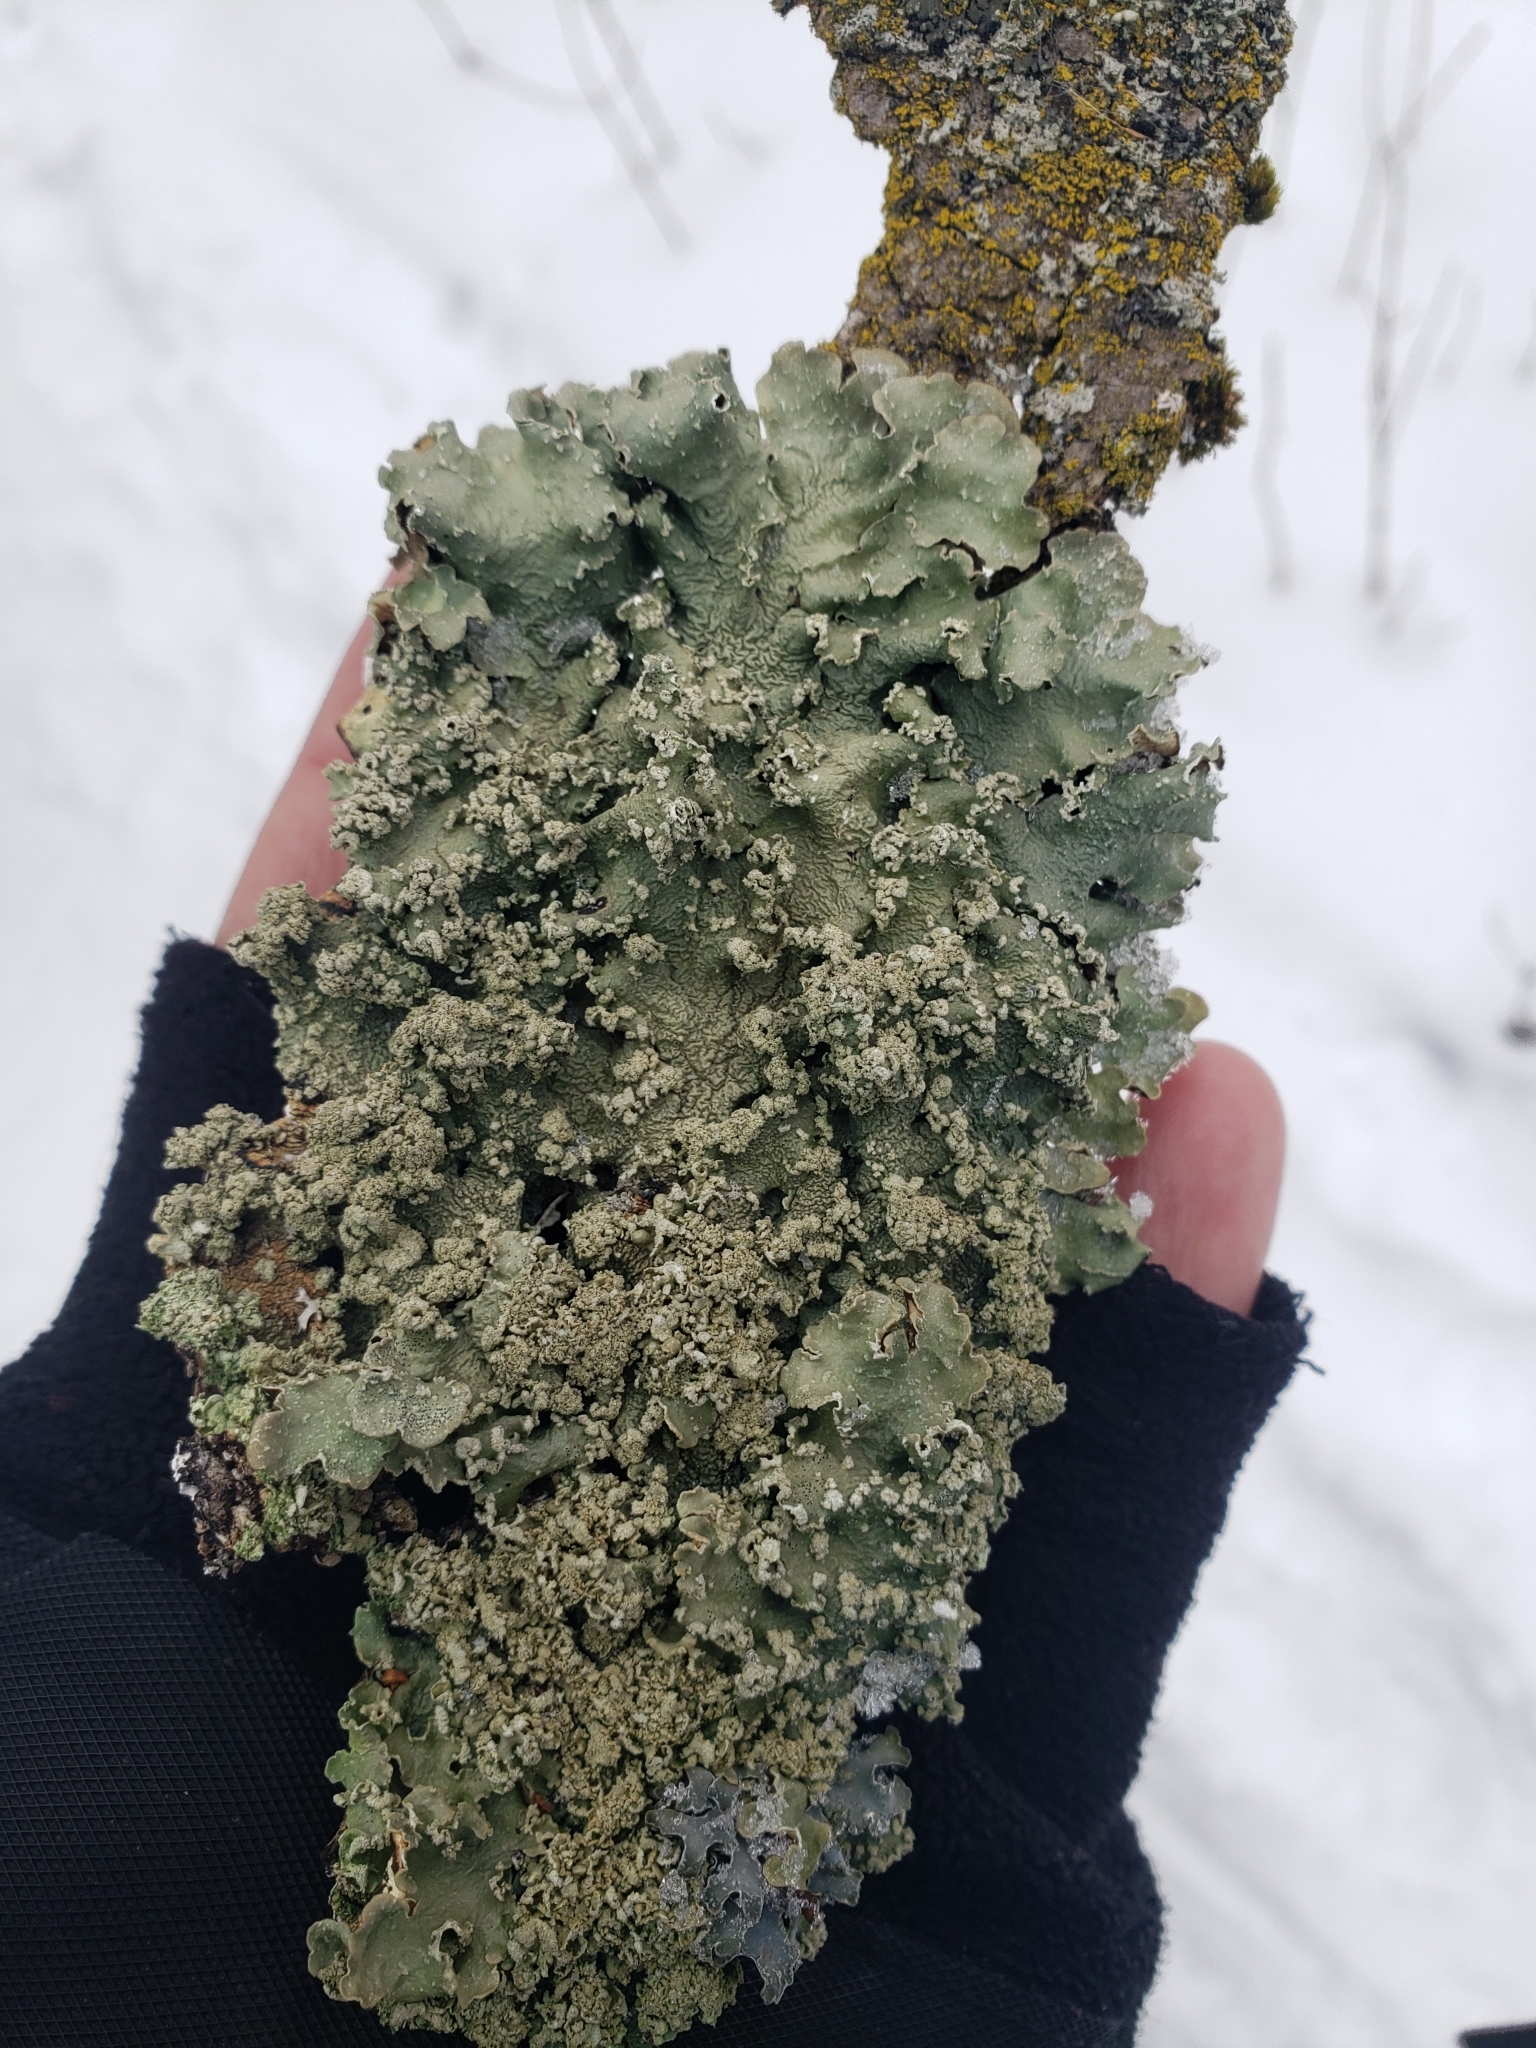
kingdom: Fungi
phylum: Ascomycota
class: Lecanoromycetes
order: Lecanorales
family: Parmeliaceae
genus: Flavopunctelia
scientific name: Flavopunctelia flaventior
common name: Speckled greenshield
